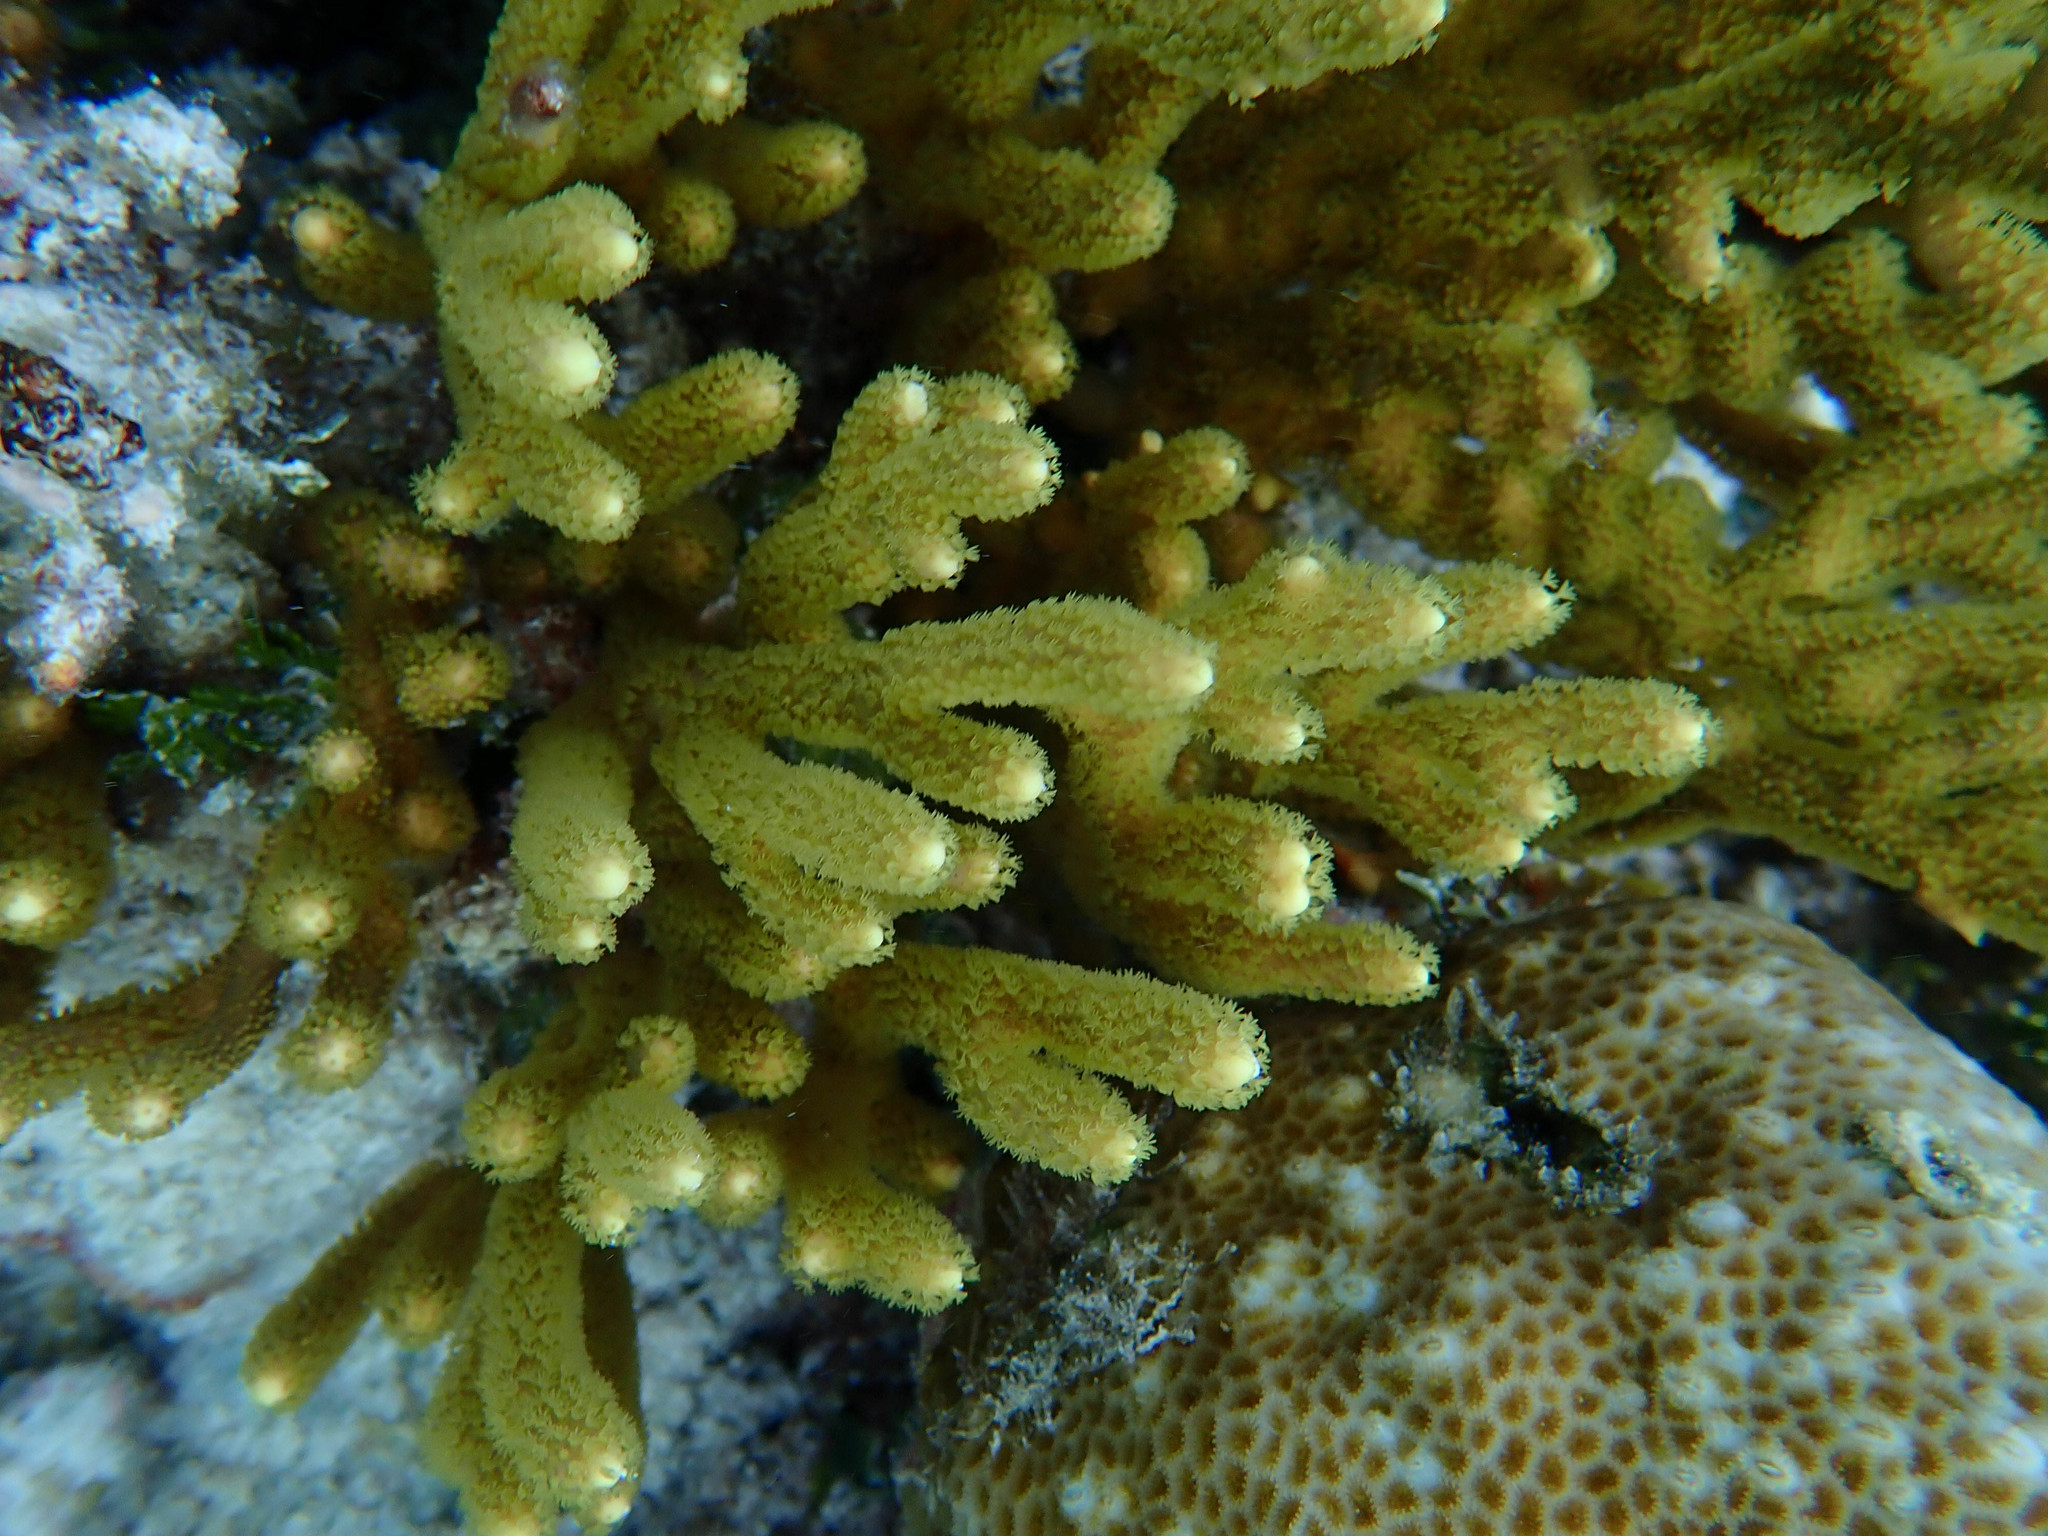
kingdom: Animalia
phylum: Cnidaria
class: Anthozoa
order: Malacalcyonacea
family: Isididae
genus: Isis
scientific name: Isis hippuris
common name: Golden sea fan
